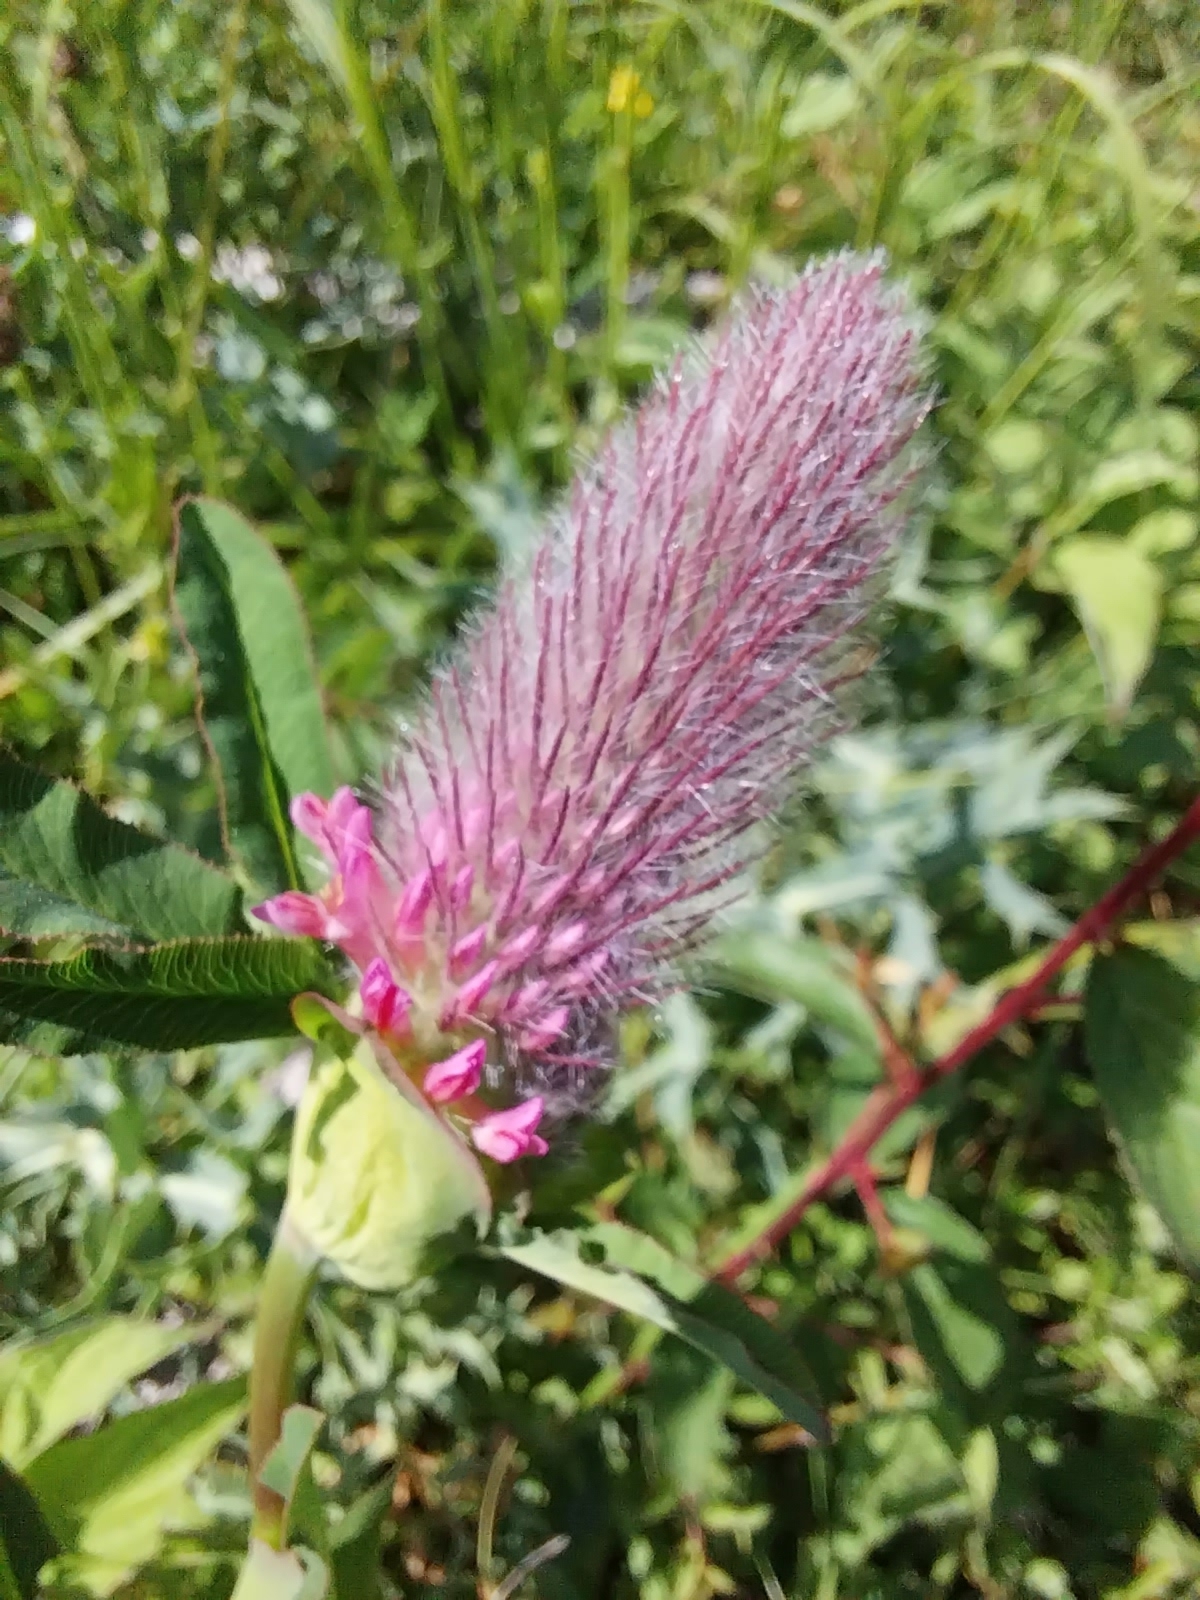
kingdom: Plantae
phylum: Tracheophyta
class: Magnoliopsida
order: Fabales
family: Fabaceae
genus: Trifolium
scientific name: Trifolium rubens
